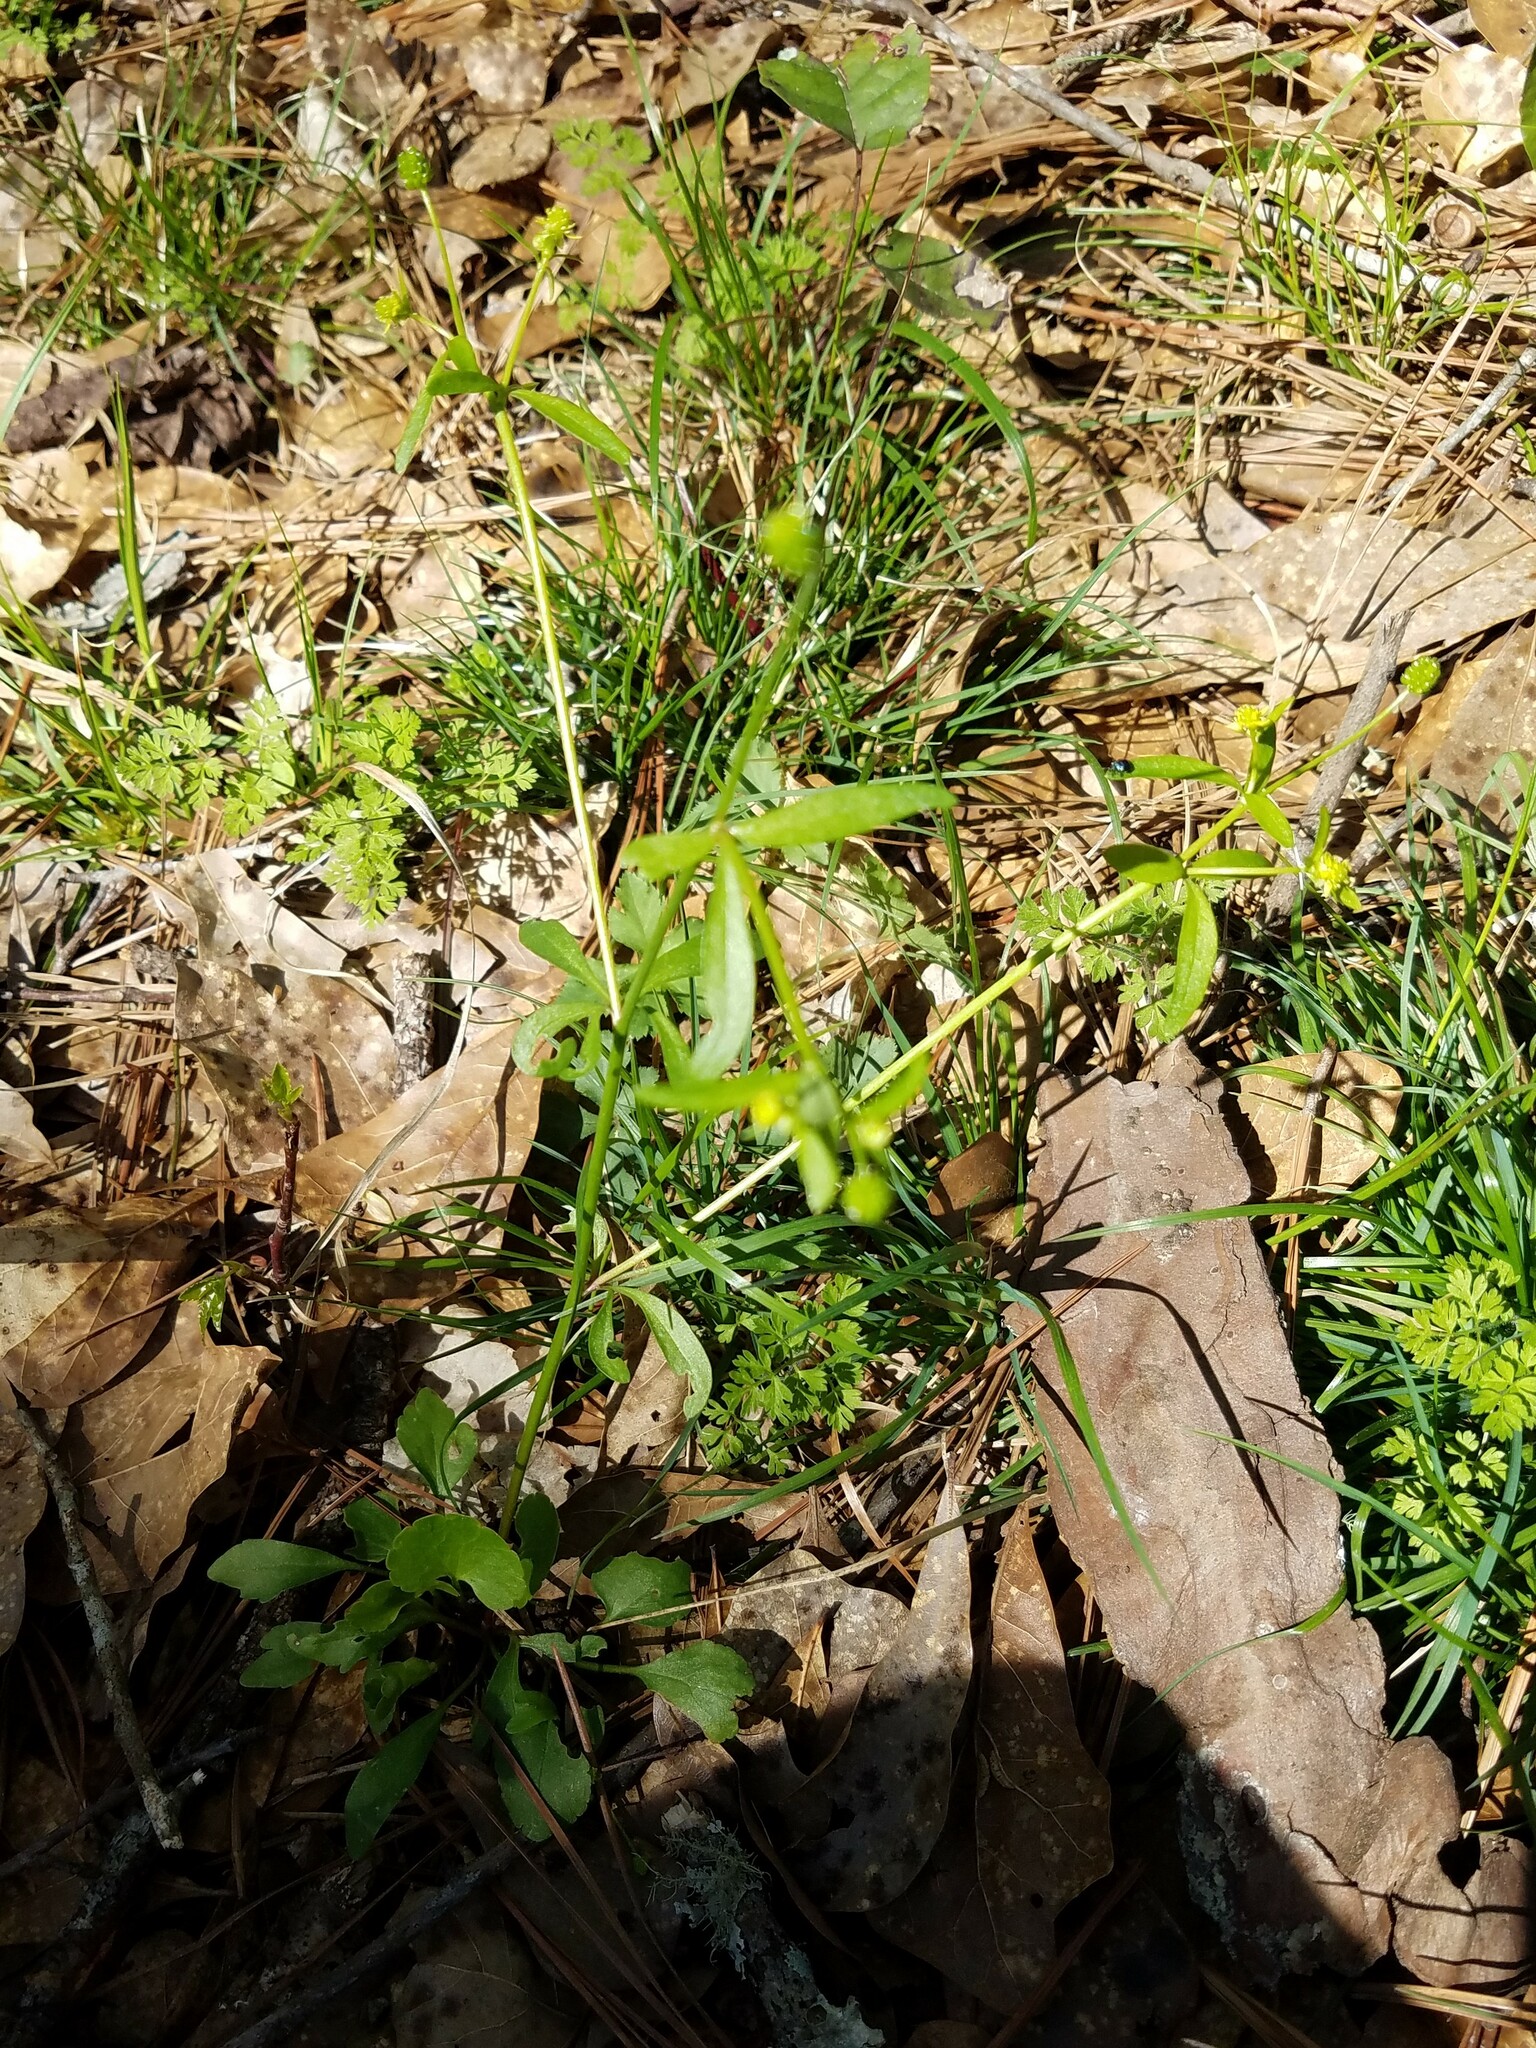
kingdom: Plantae
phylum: Tracheophyta
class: Magnoliopsida
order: Ranunculales
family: Ranunculaceae
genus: Ranunculus
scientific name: Ranunculus abortivus
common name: Early wood buttercup
